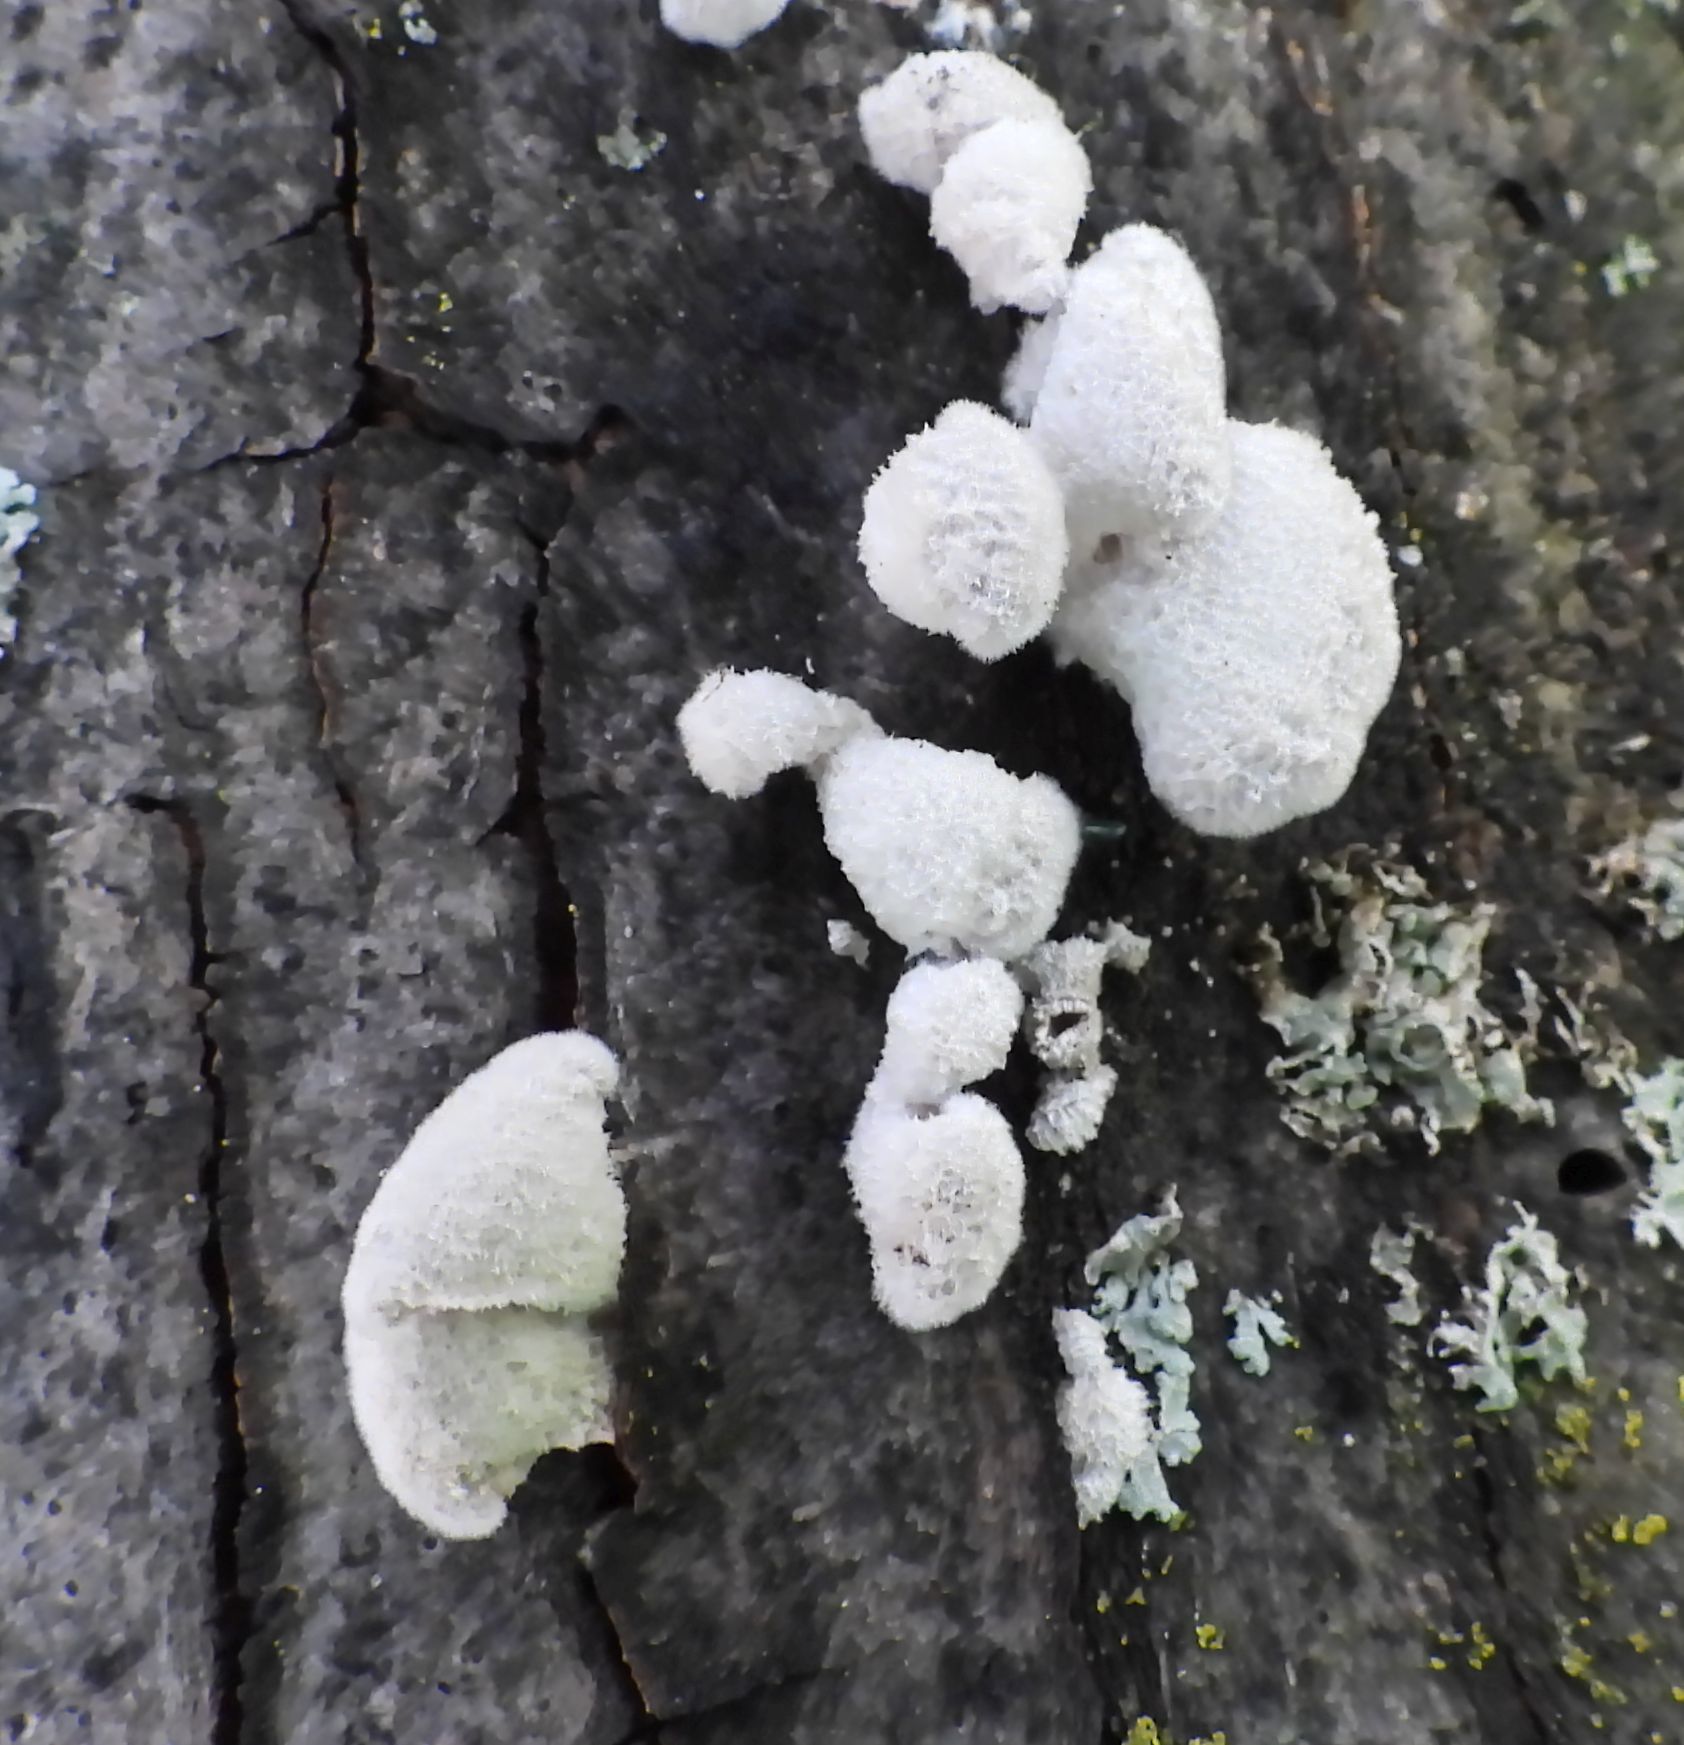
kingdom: Fungi
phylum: Basidiomycota
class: Agaricomycetes
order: Agaricales
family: Schizophyllaceae
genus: Schizophyllum
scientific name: Schizophyllum commune
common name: Common porecrust
